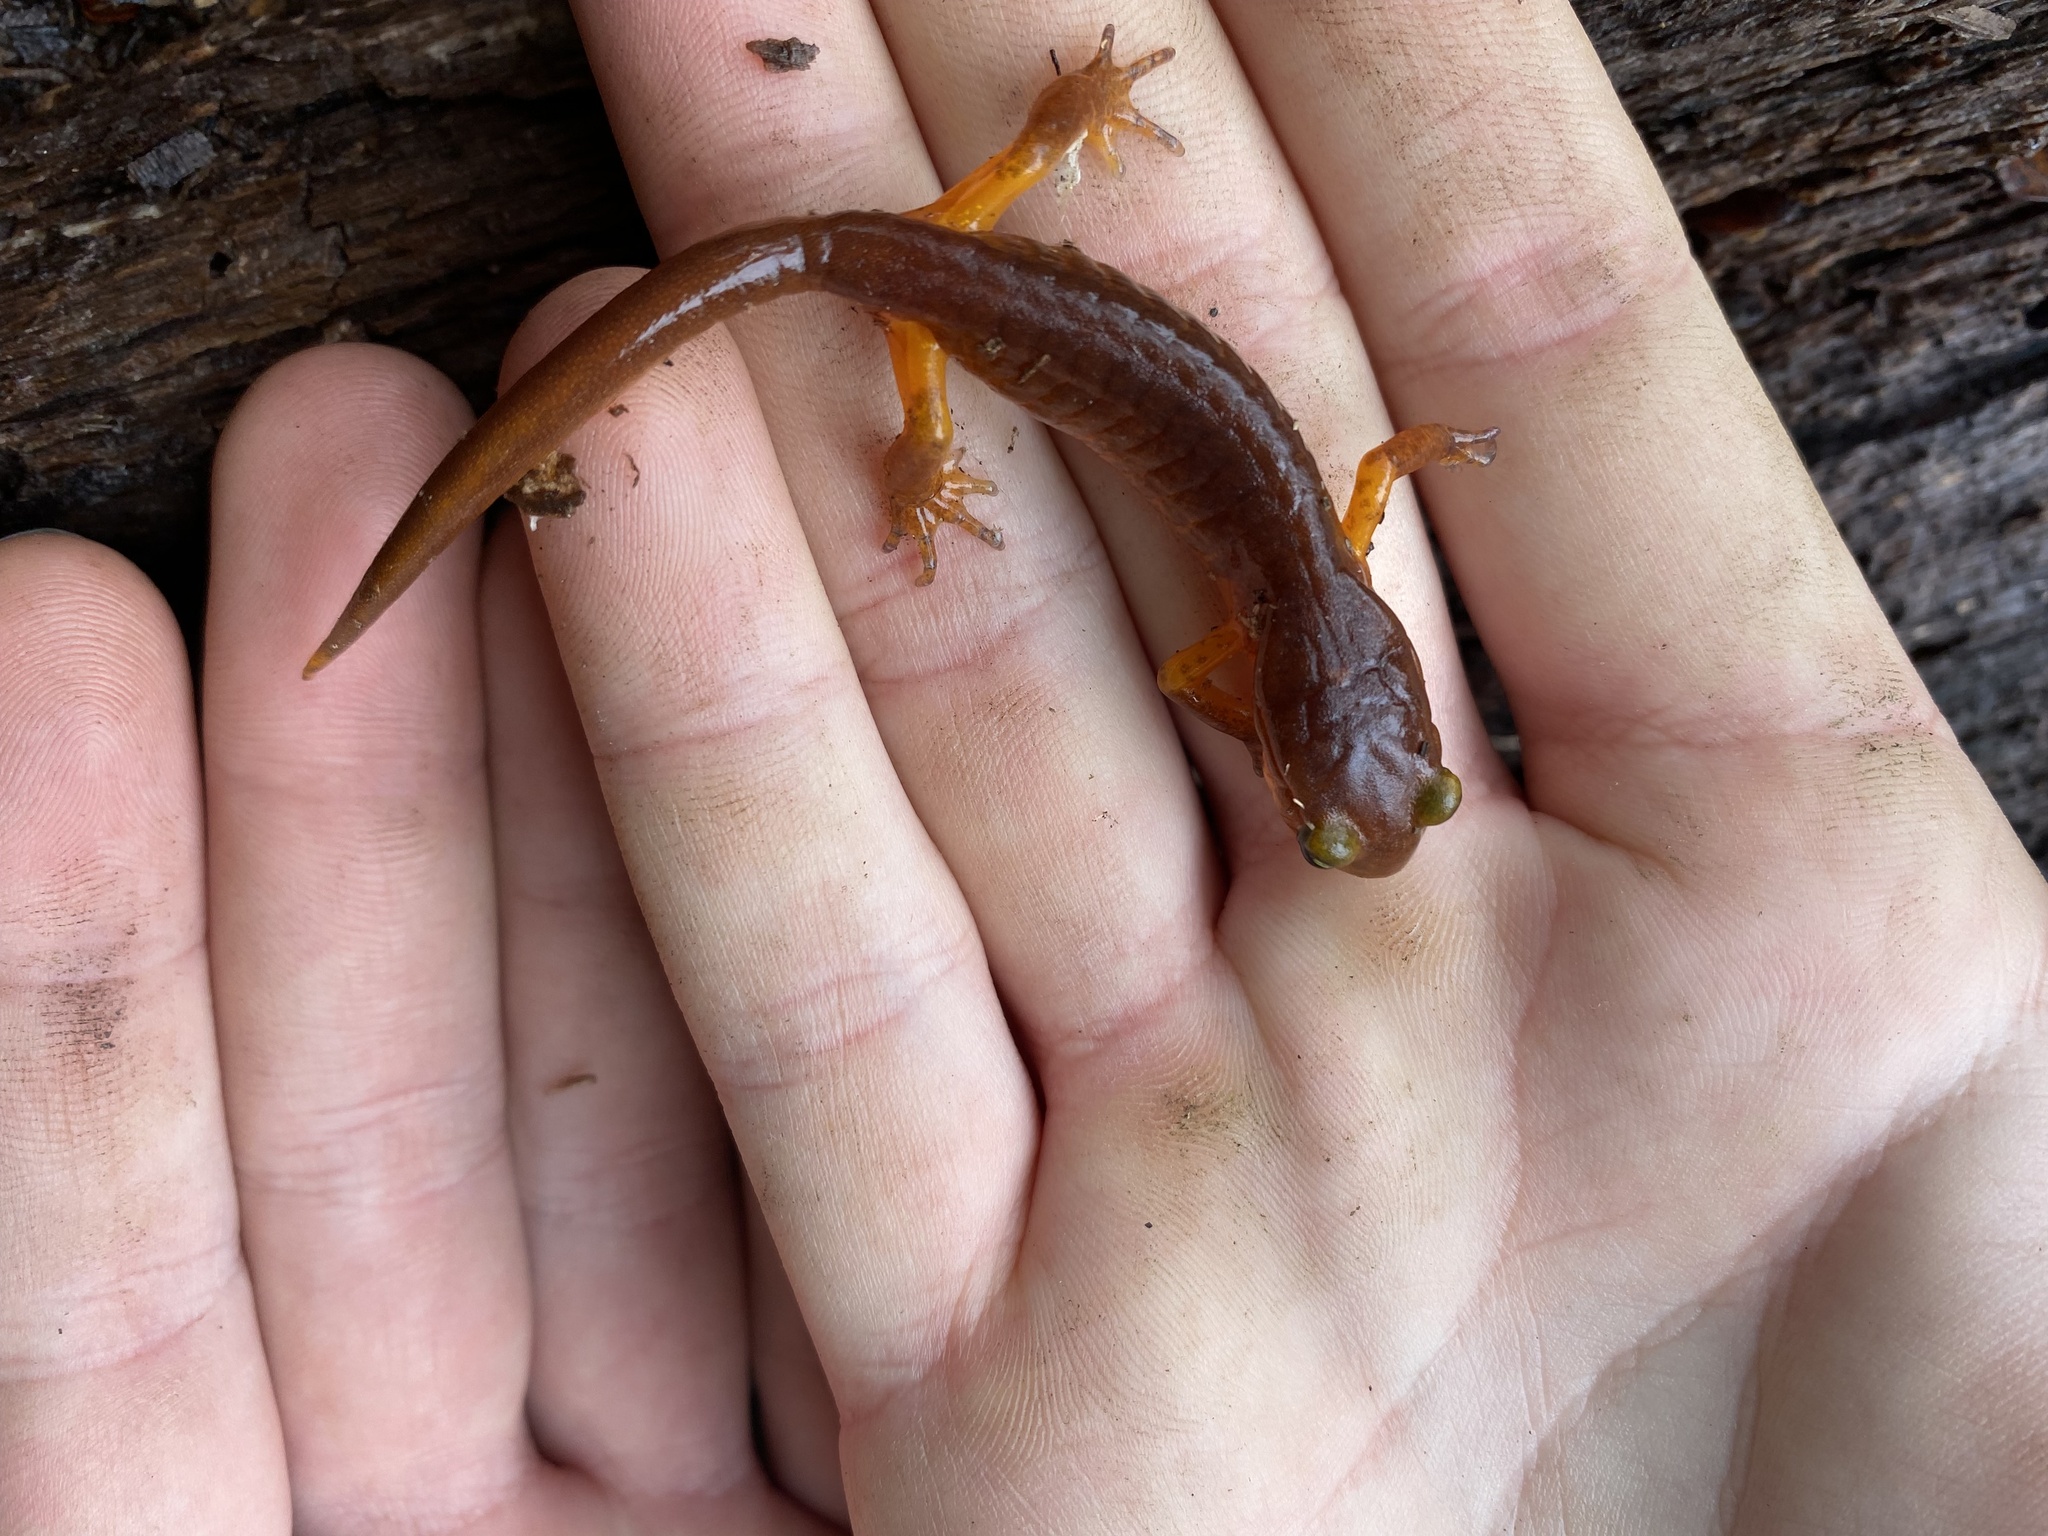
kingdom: Animalia
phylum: Chordata
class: Amphibia
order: Caudata
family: Plethodontidae
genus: Ensatina
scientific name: Ensatina eschscholtzii
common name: Ensatina
